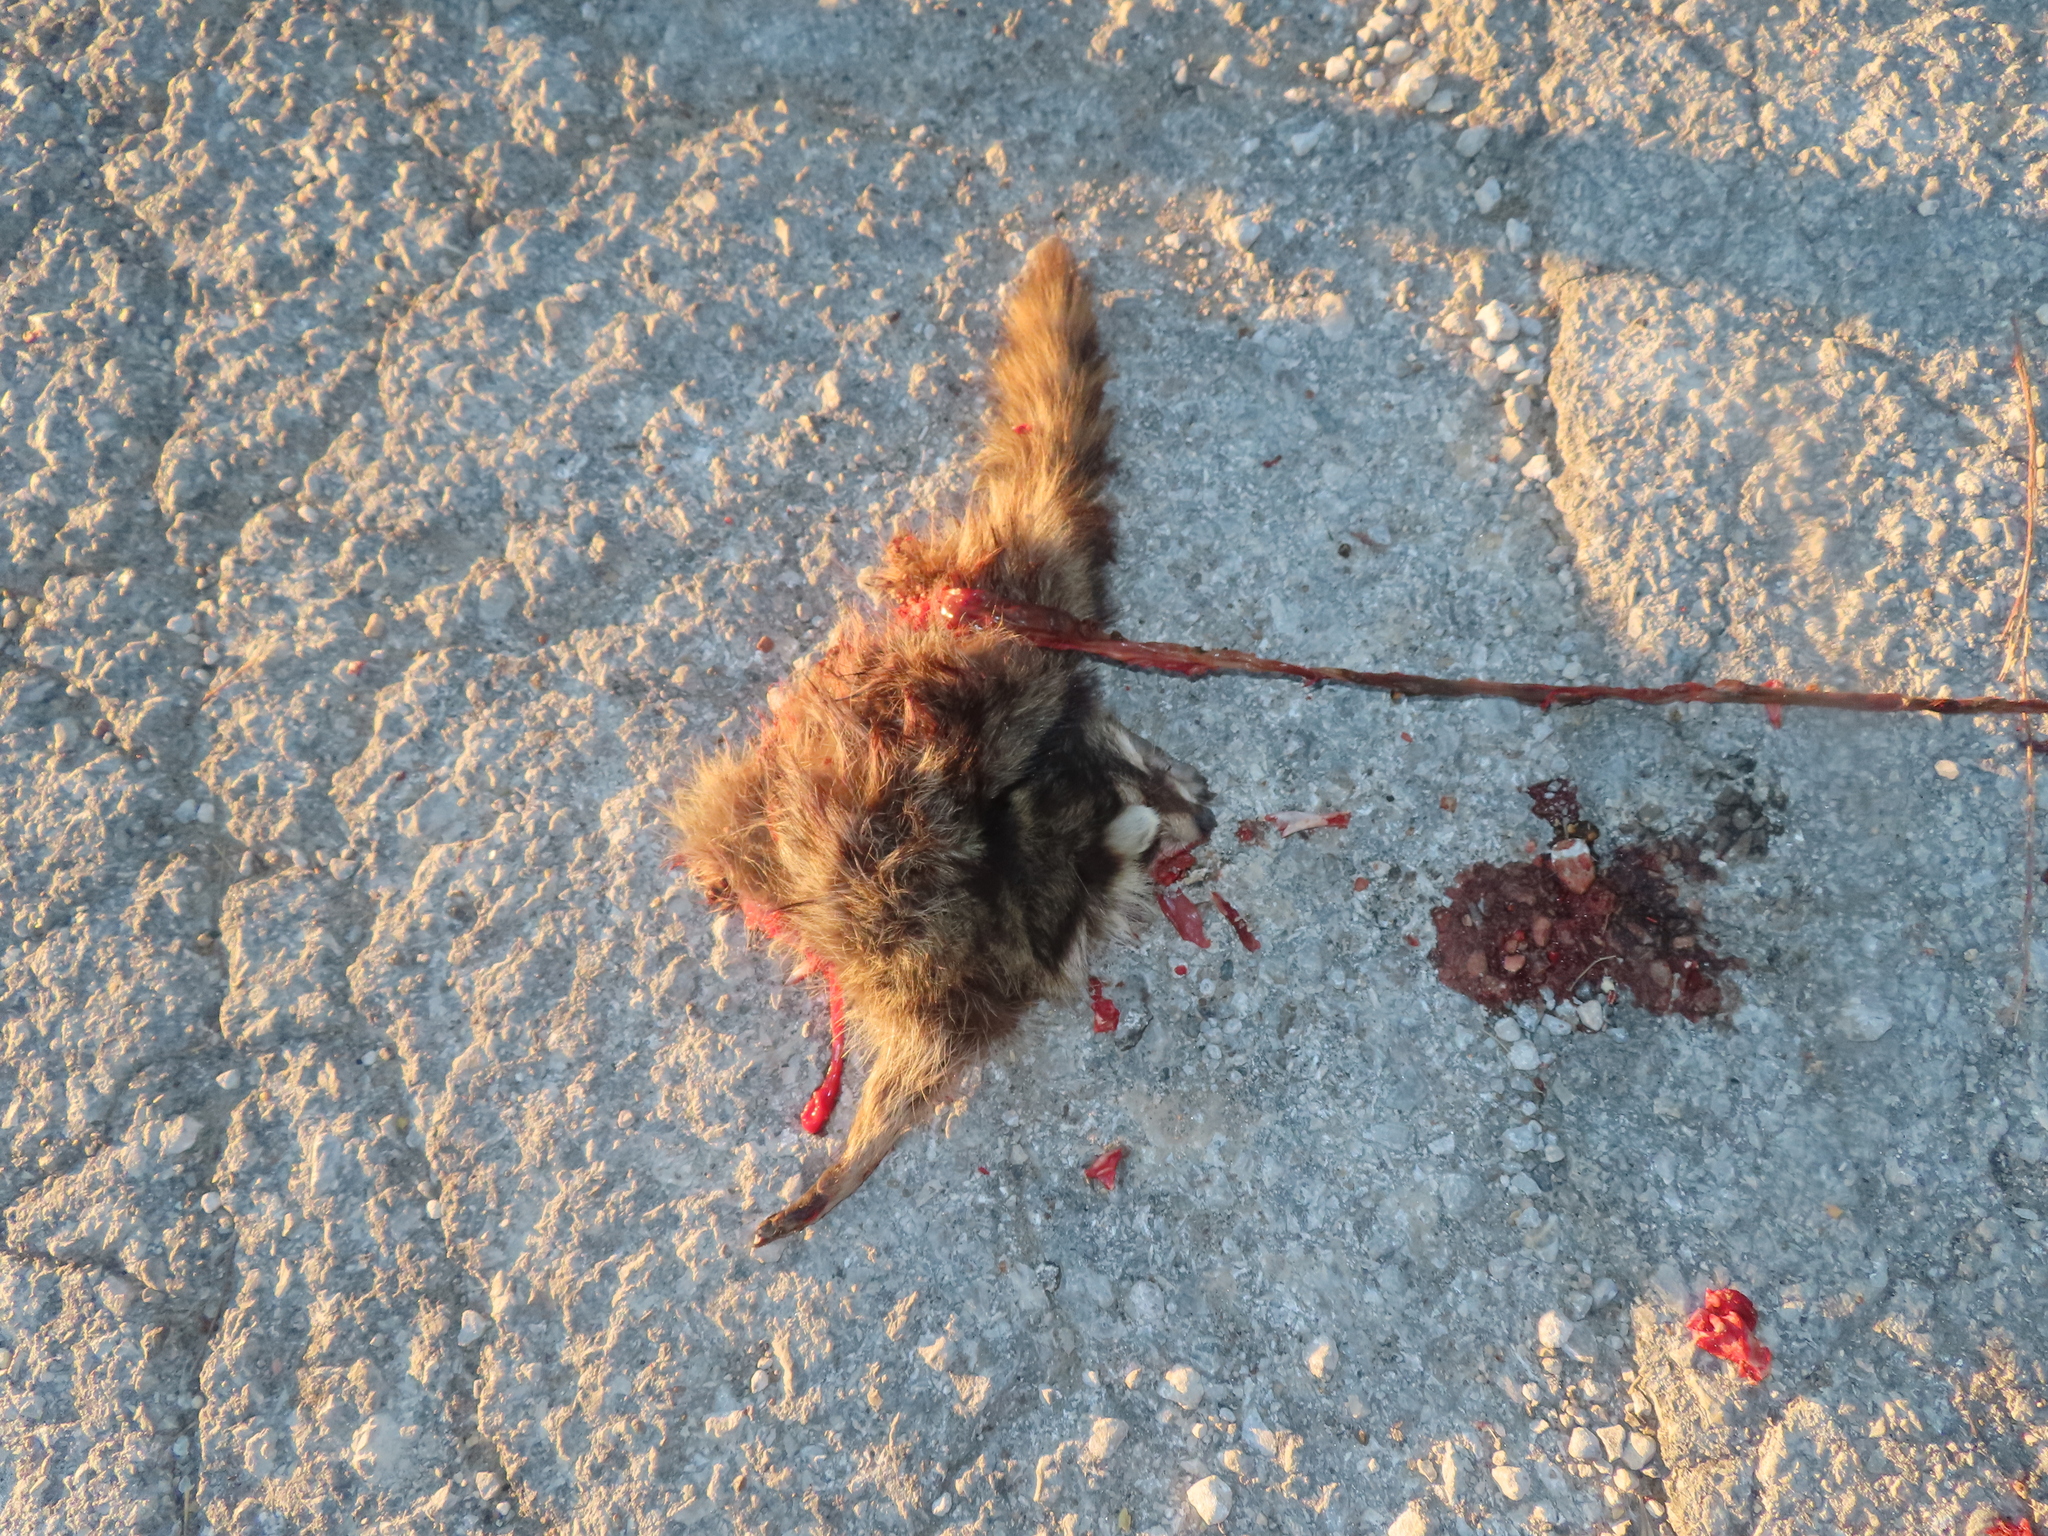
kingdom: Animalia
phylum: Chordata
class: Mammalia
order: Carnivora
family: Procyonidae
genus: Procyon
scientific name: Procyon lotor
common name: Raccoon
